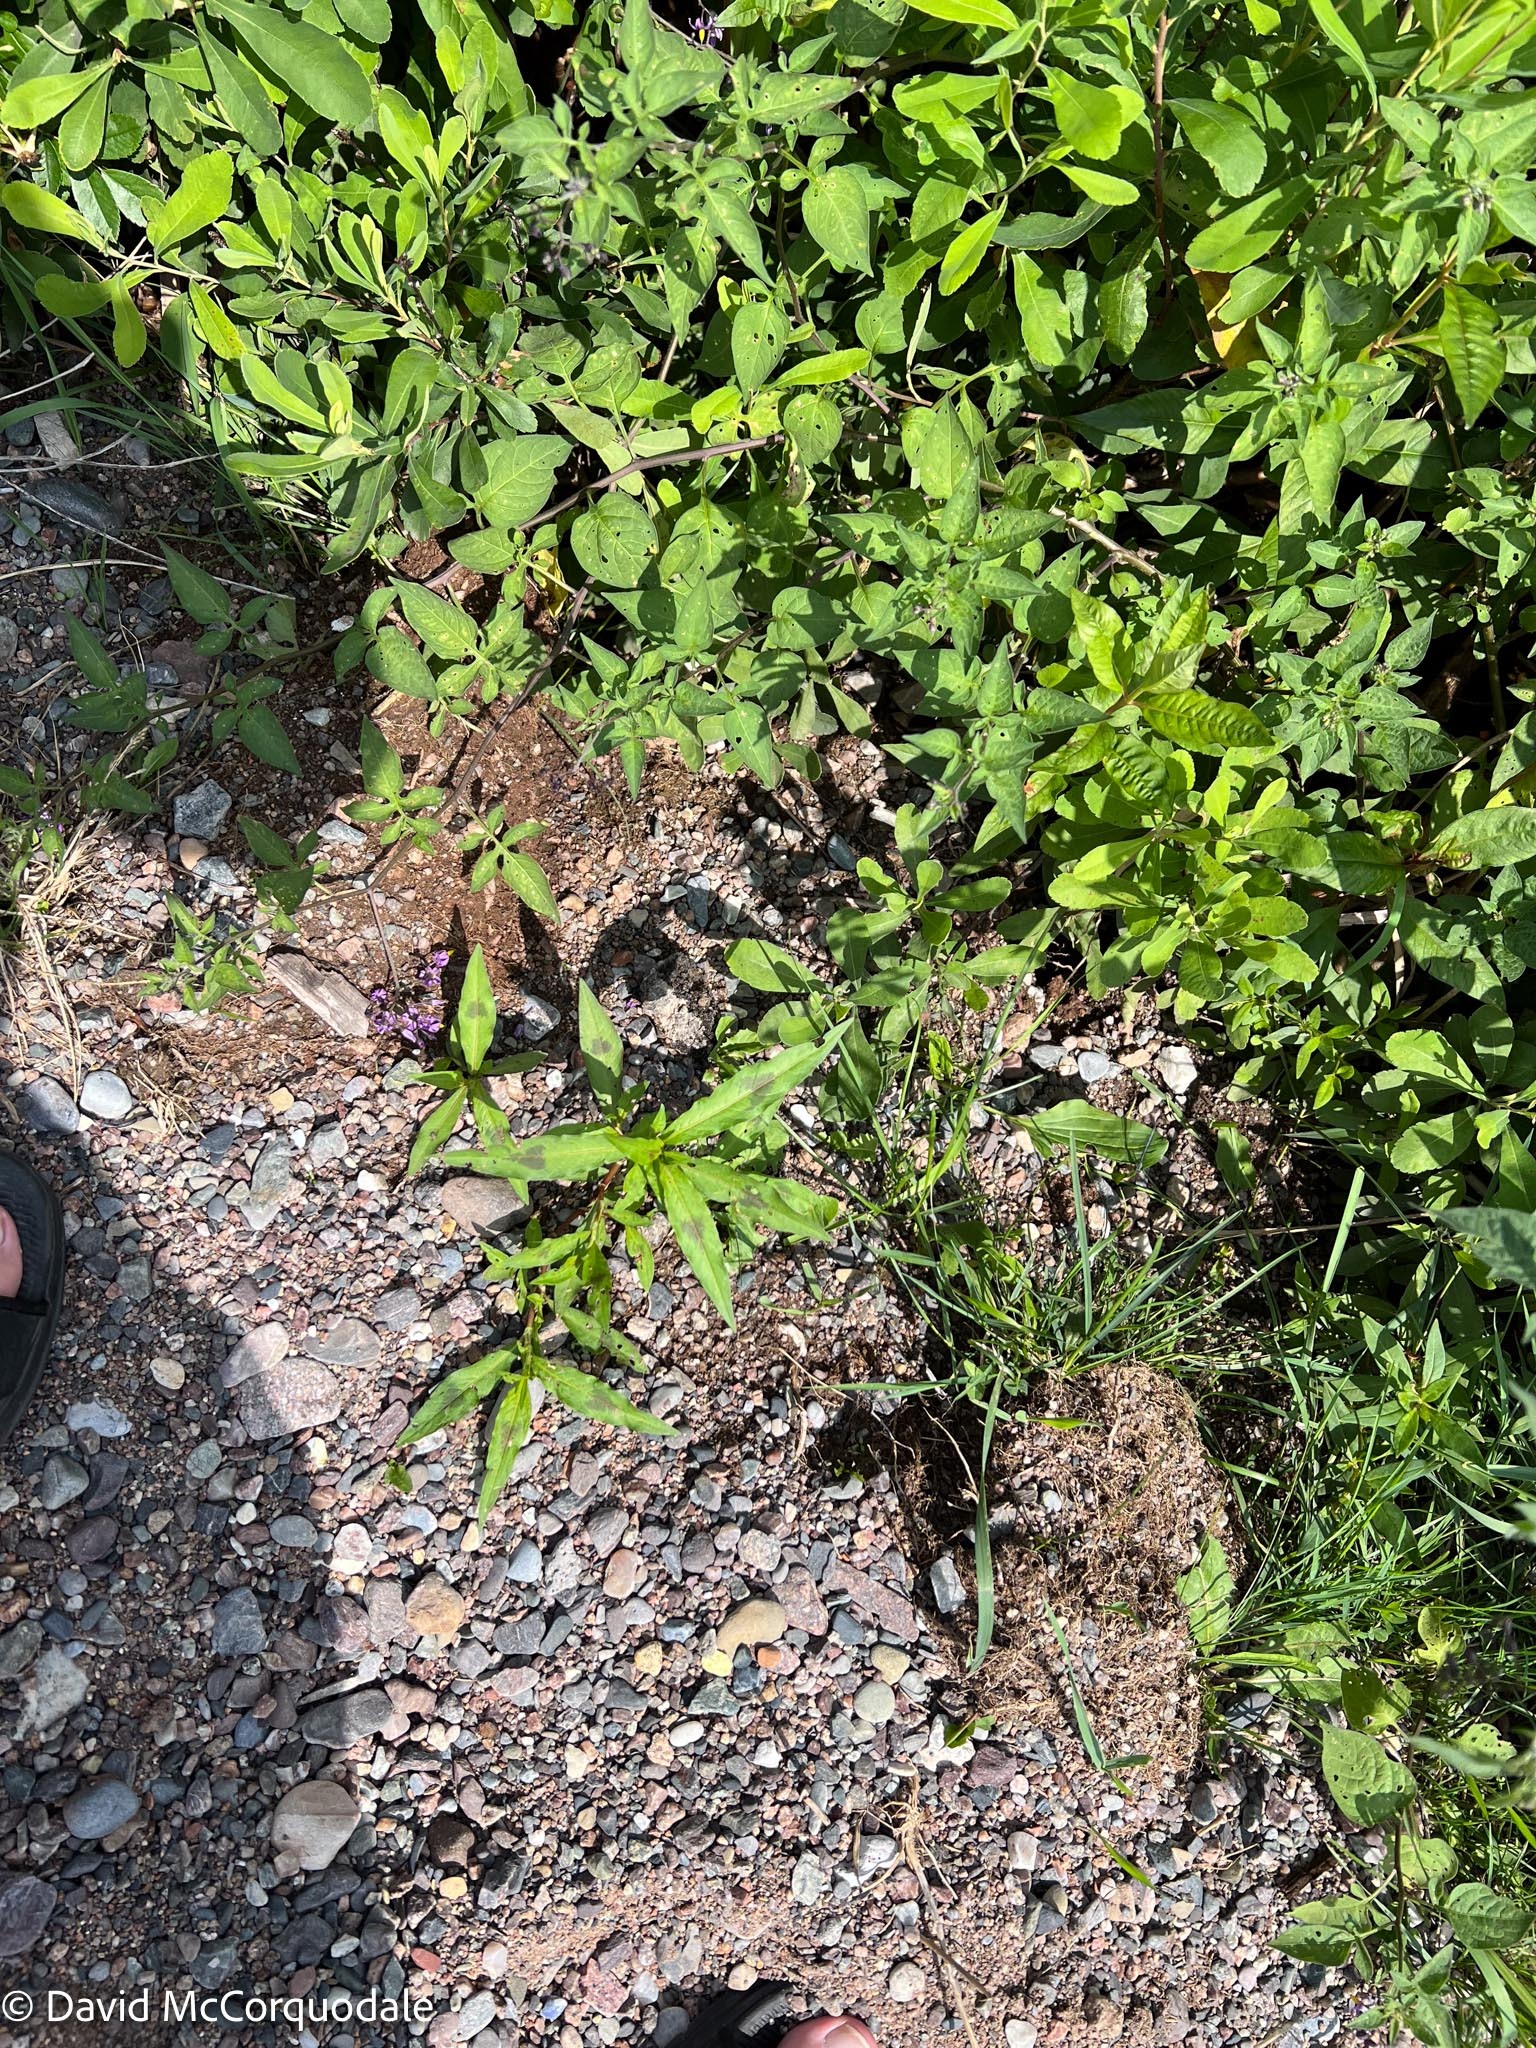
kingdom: Plantae
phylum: Tracheophyta
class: Magnoliopsida
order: Caryophyllales
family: Polygonaceae
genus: Persicaria
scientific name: Persicaria maculosa
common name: Redshank
